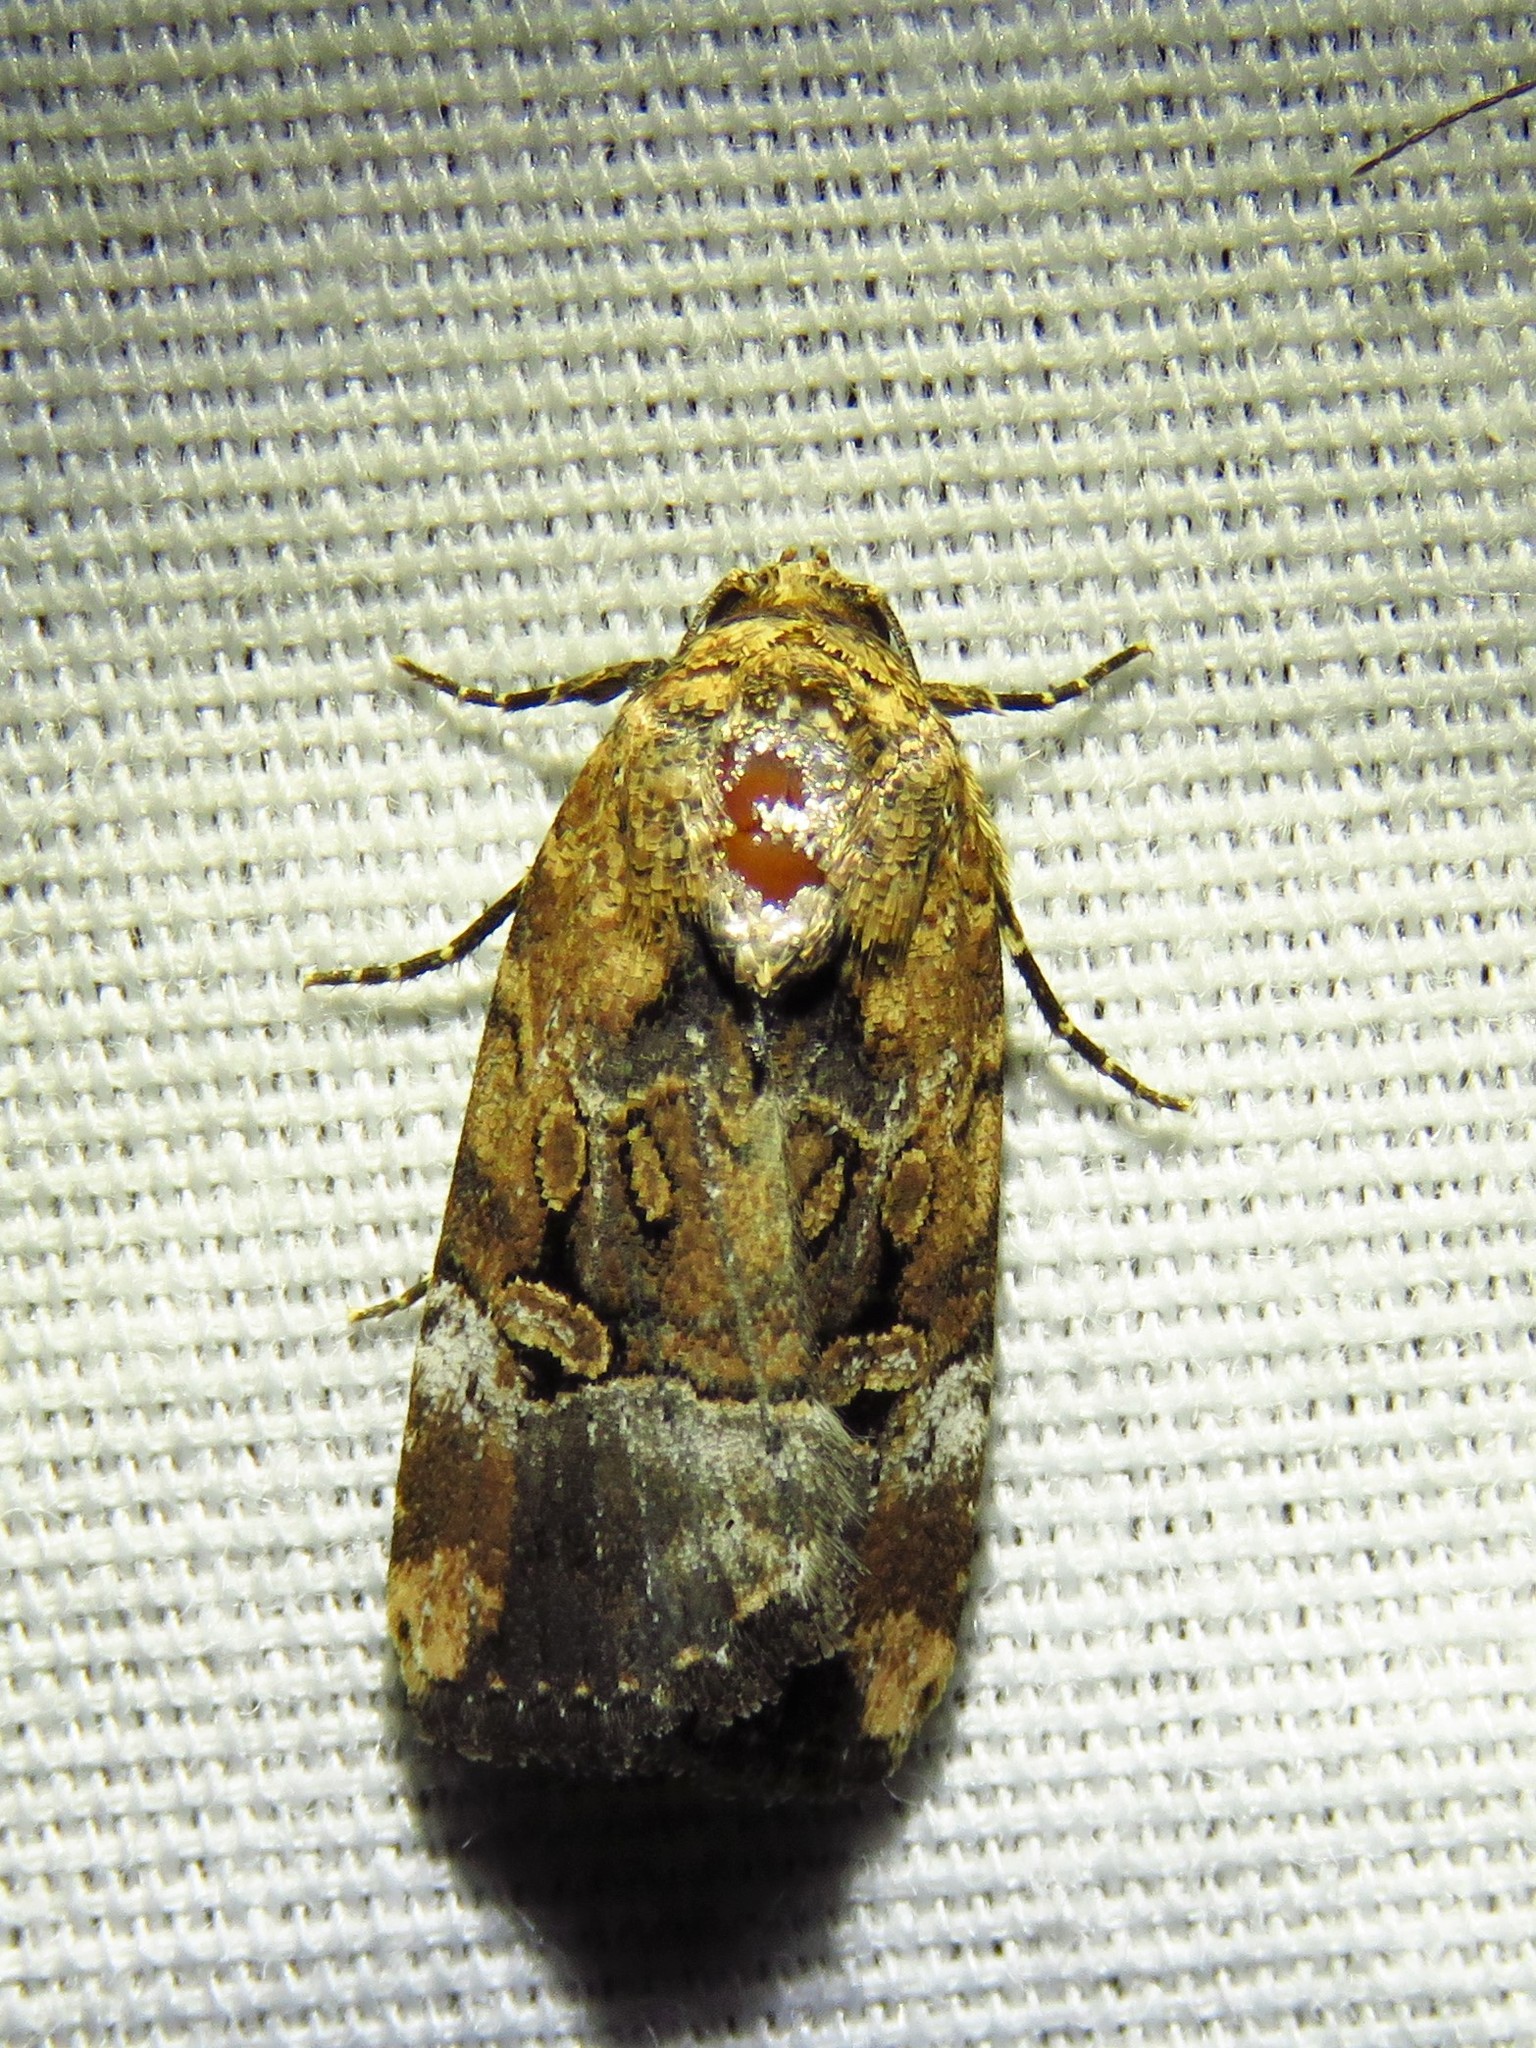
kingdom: Animalia
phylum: Arthropoda
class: Insecta
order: Lepidoptera
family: Noctuidae
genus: Elaphria
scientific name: Elaphria chalcedonia
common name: Chalcedony midget
